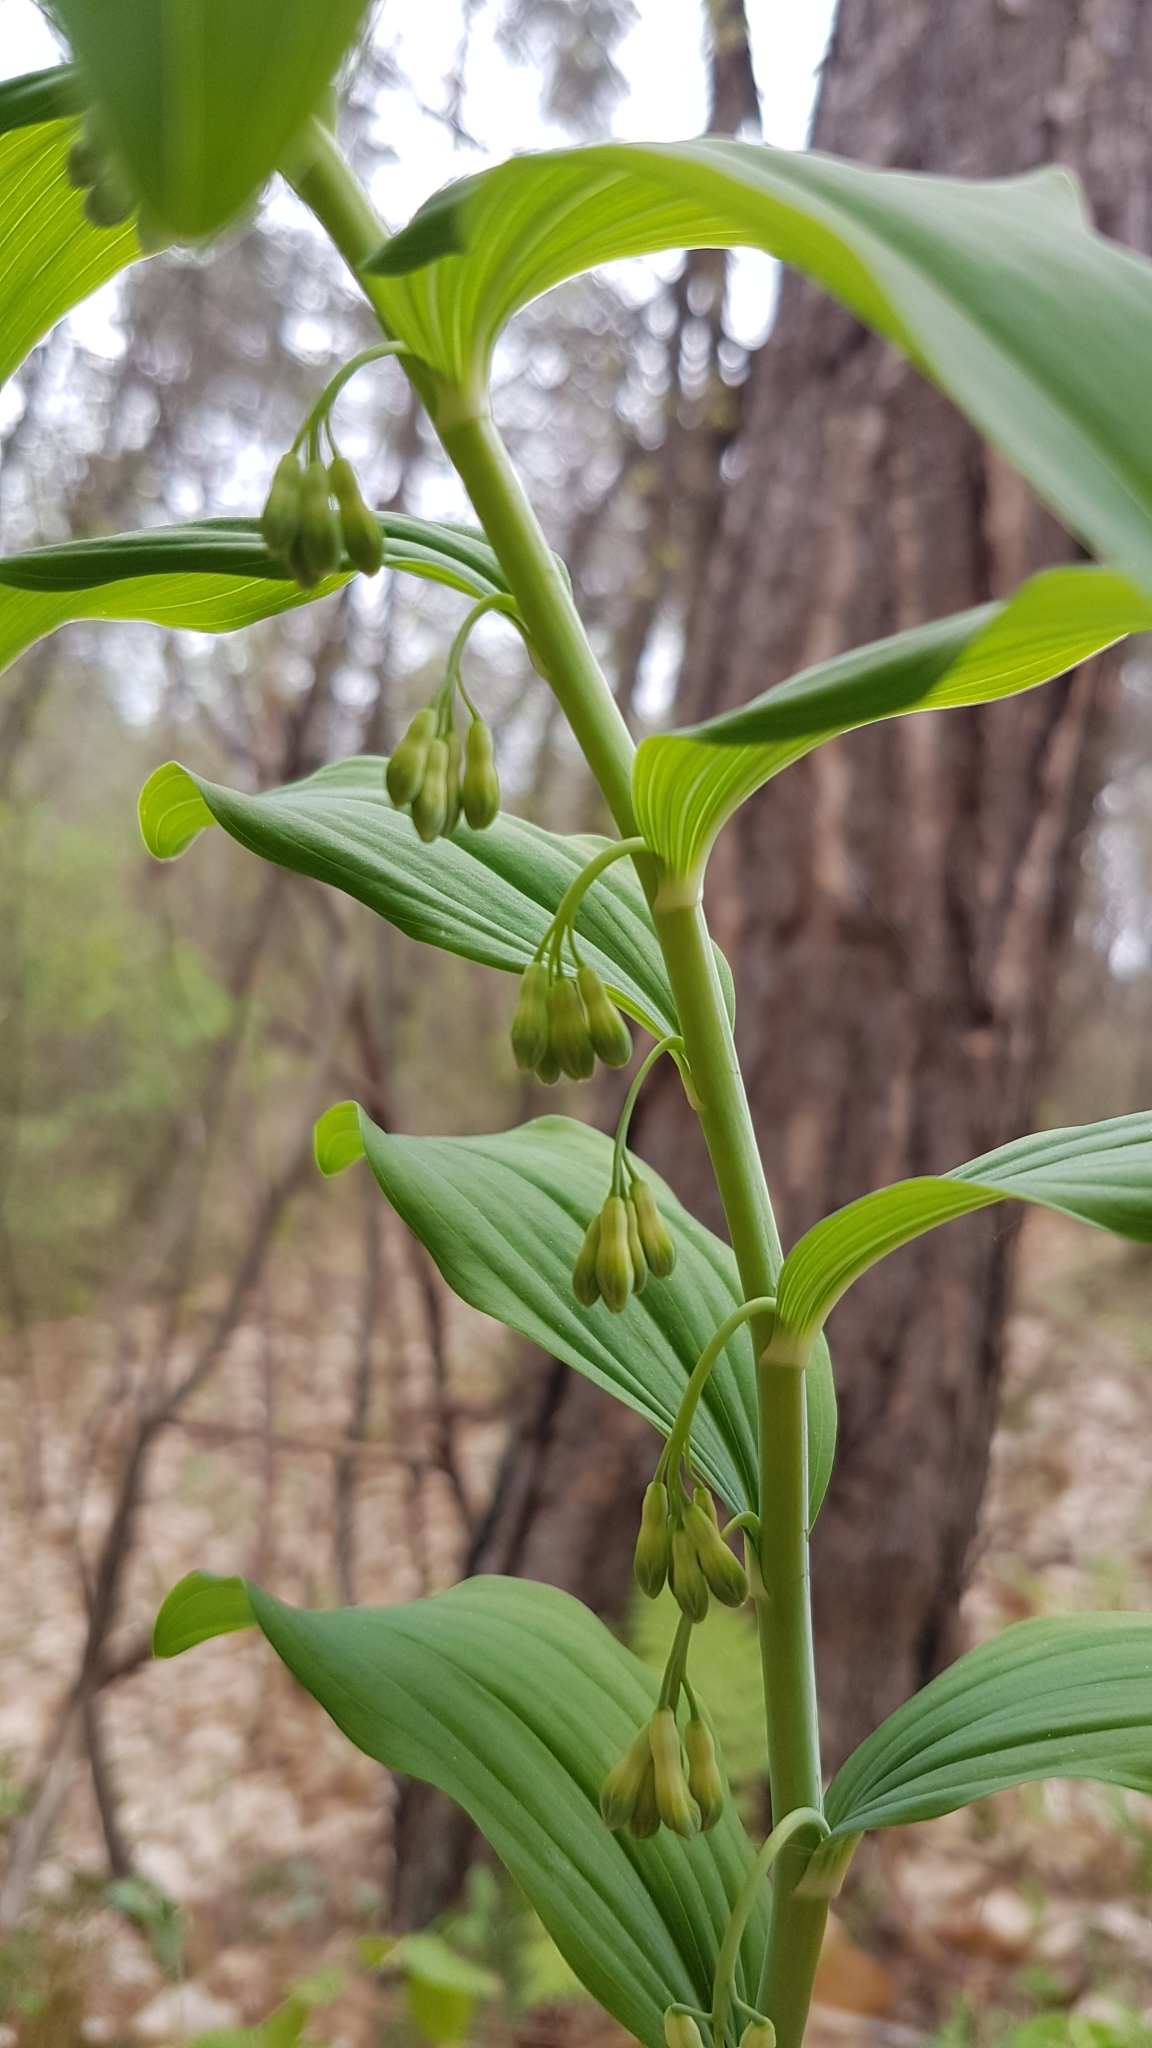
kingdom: Plantae
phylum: Tracheophyta
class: Liliopsida
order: Asparagales
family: Asparagaceae
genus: Polygonatum
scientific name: Polygonatum multiflorum
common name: Solomon's-seal
